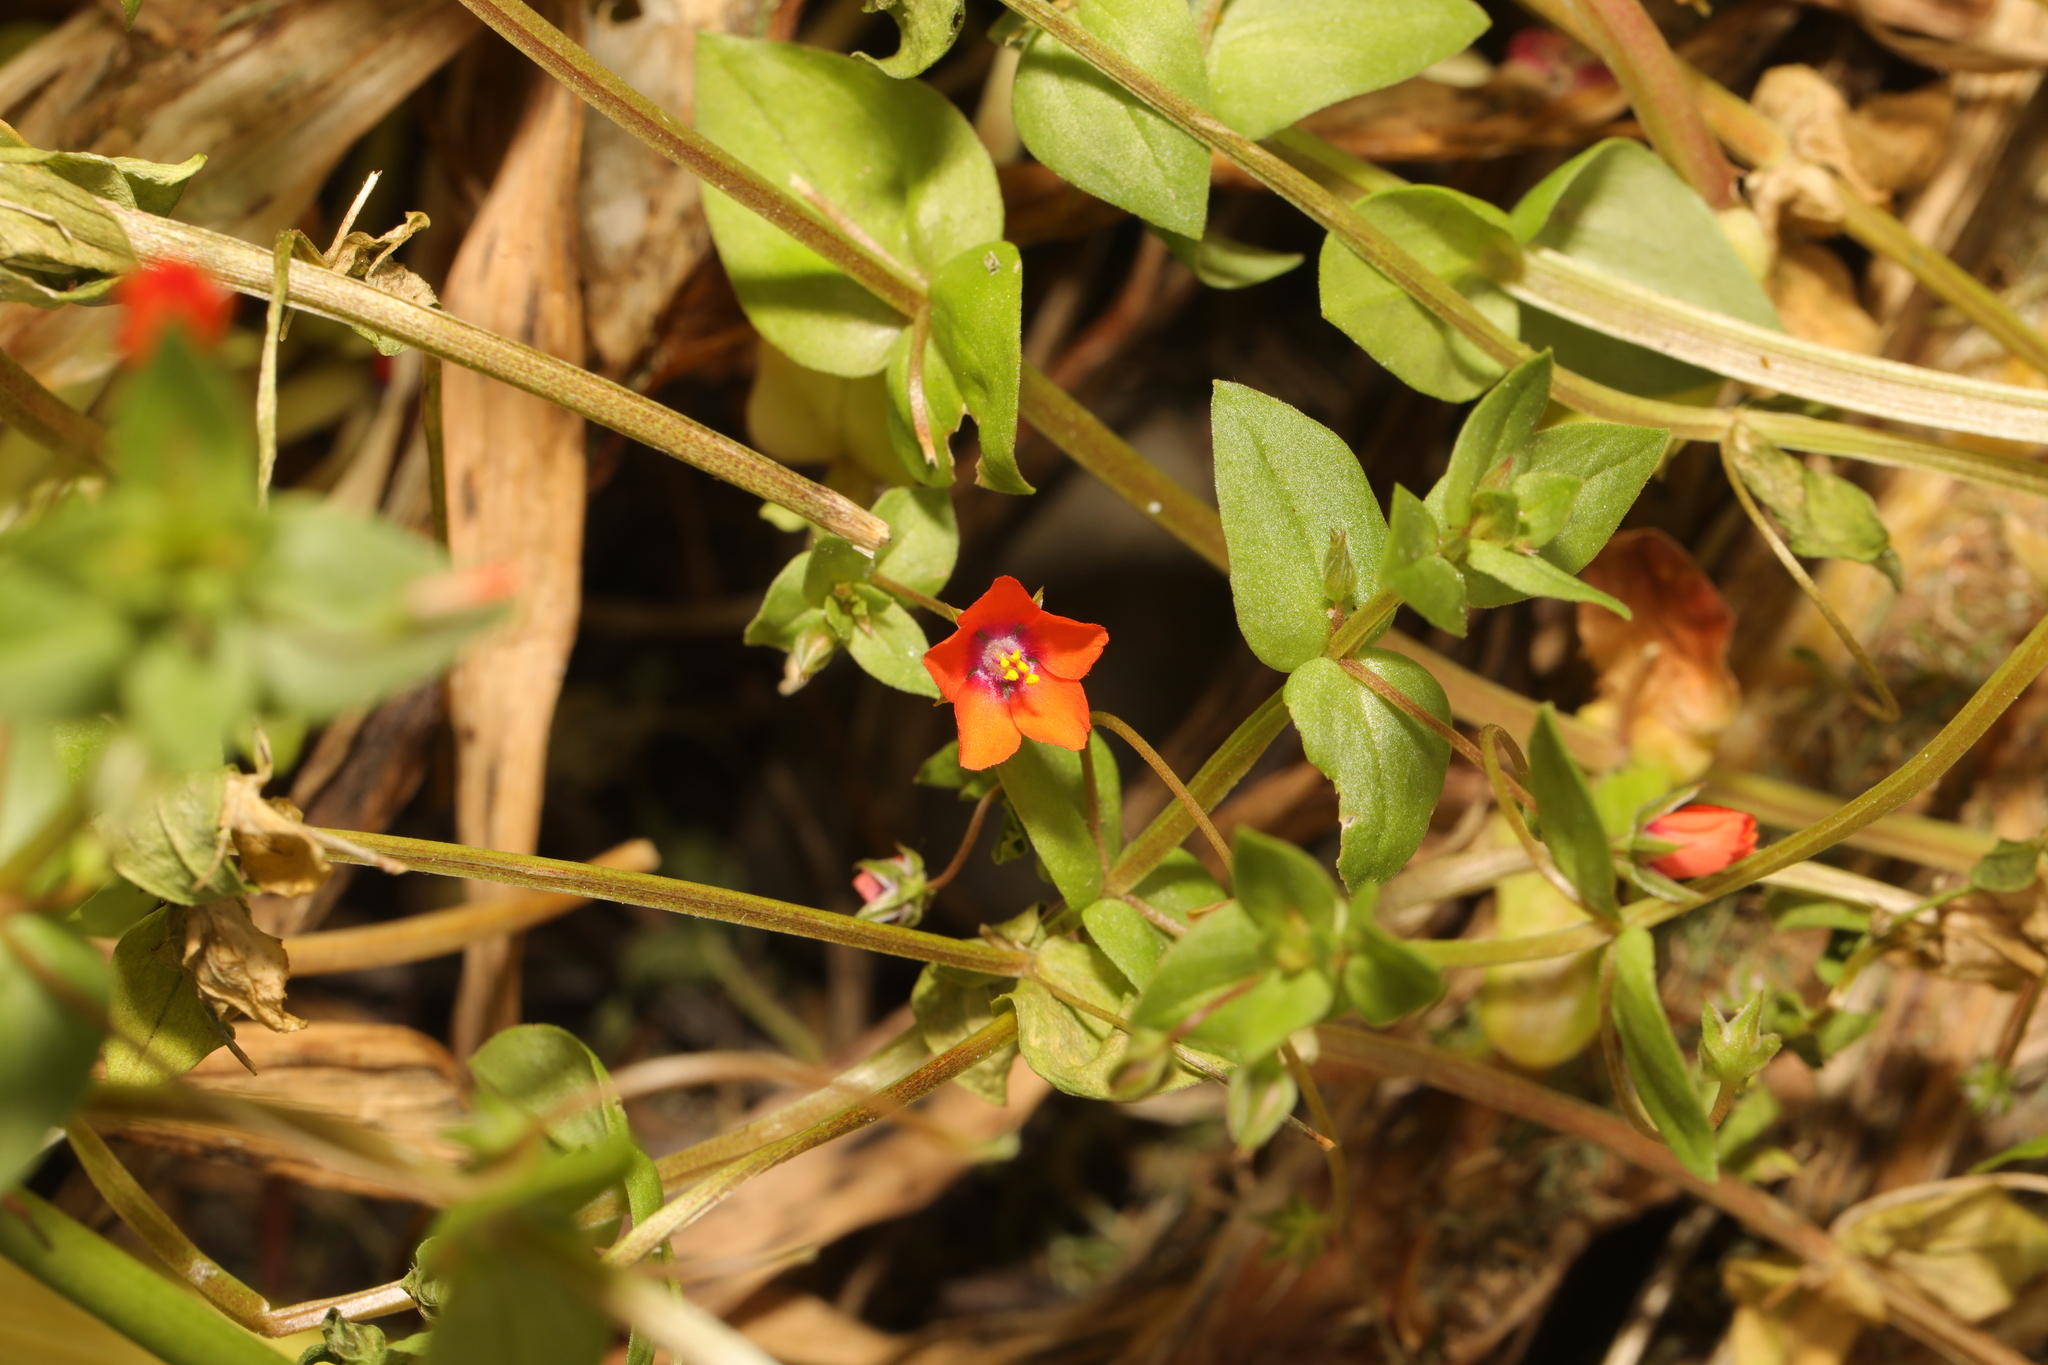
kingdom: Plantae
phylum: Tracheophyta
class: Magnoliopsida
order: Ericales
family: Primulaceae
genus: Lysimachia
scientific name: Lysimachia arvensis
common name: Scarlet pimpernel
